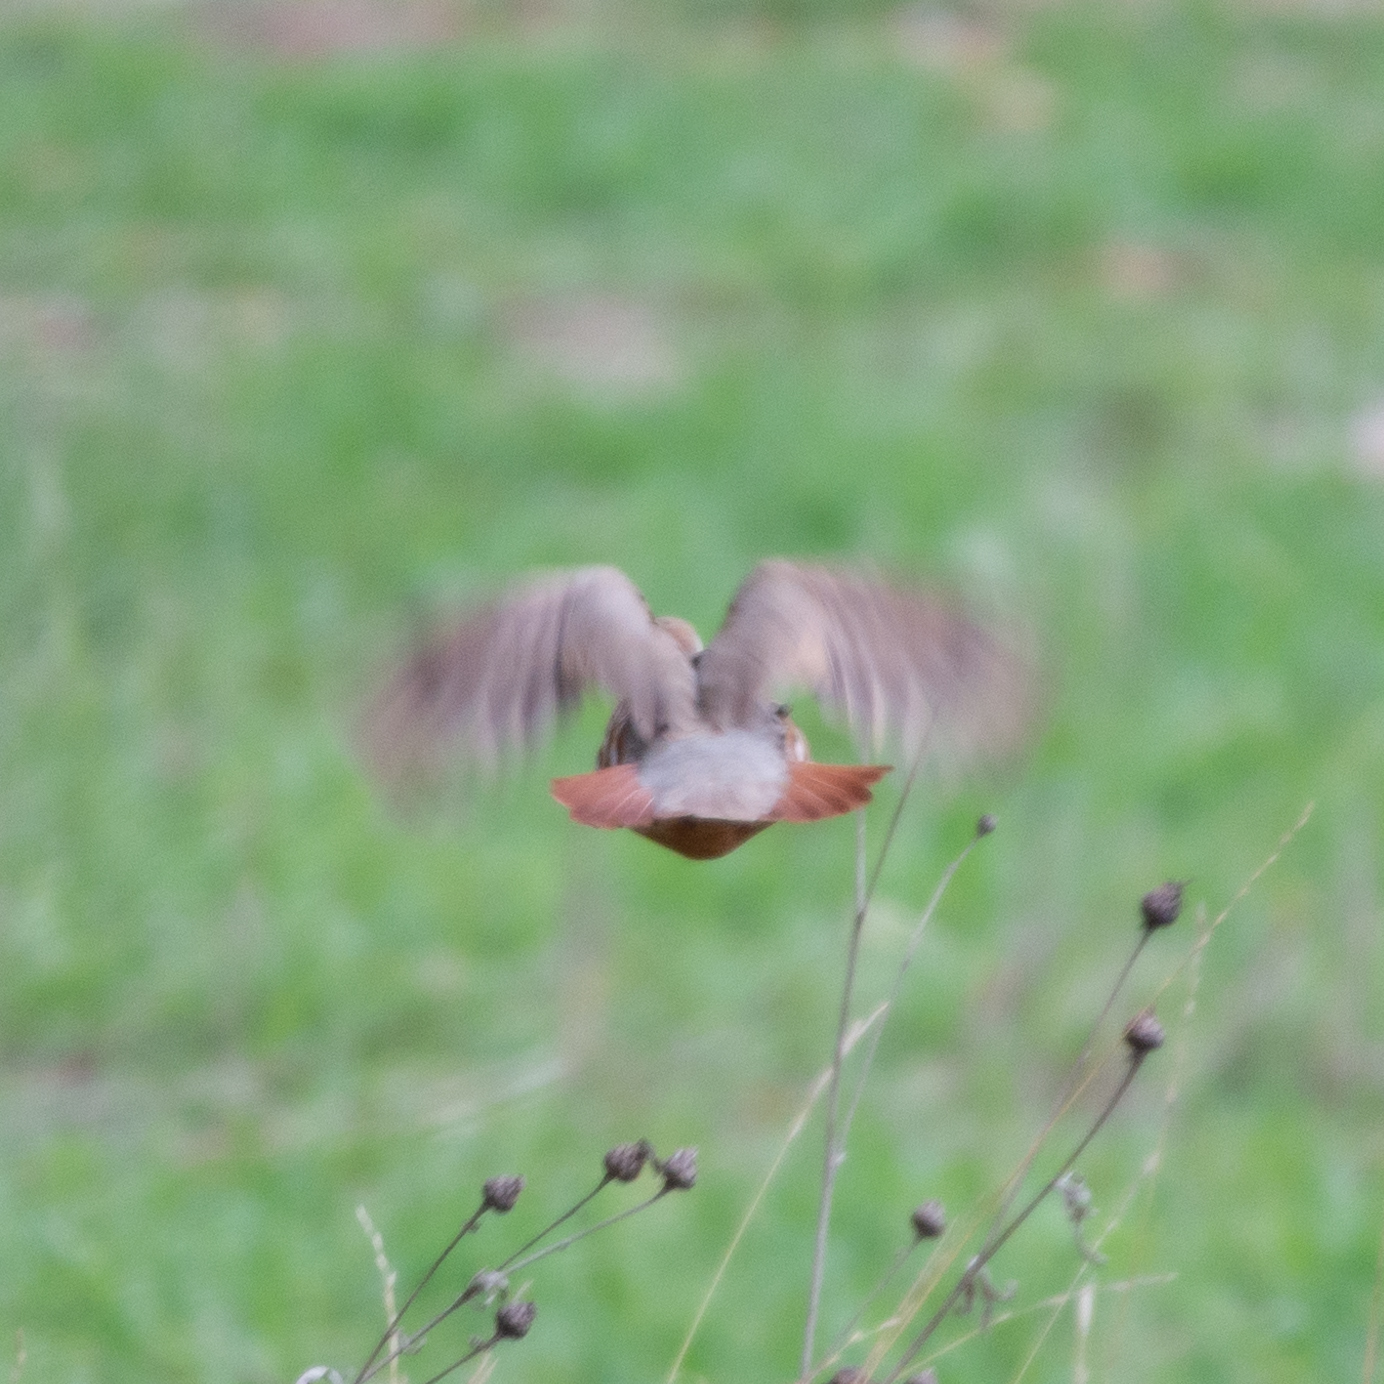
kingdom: Animalia
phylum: Chordata
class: Aves
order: Galliformes
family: Phasianidae
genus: Alectoris
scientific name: Alectoris rufa
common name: Red-legged partridge
